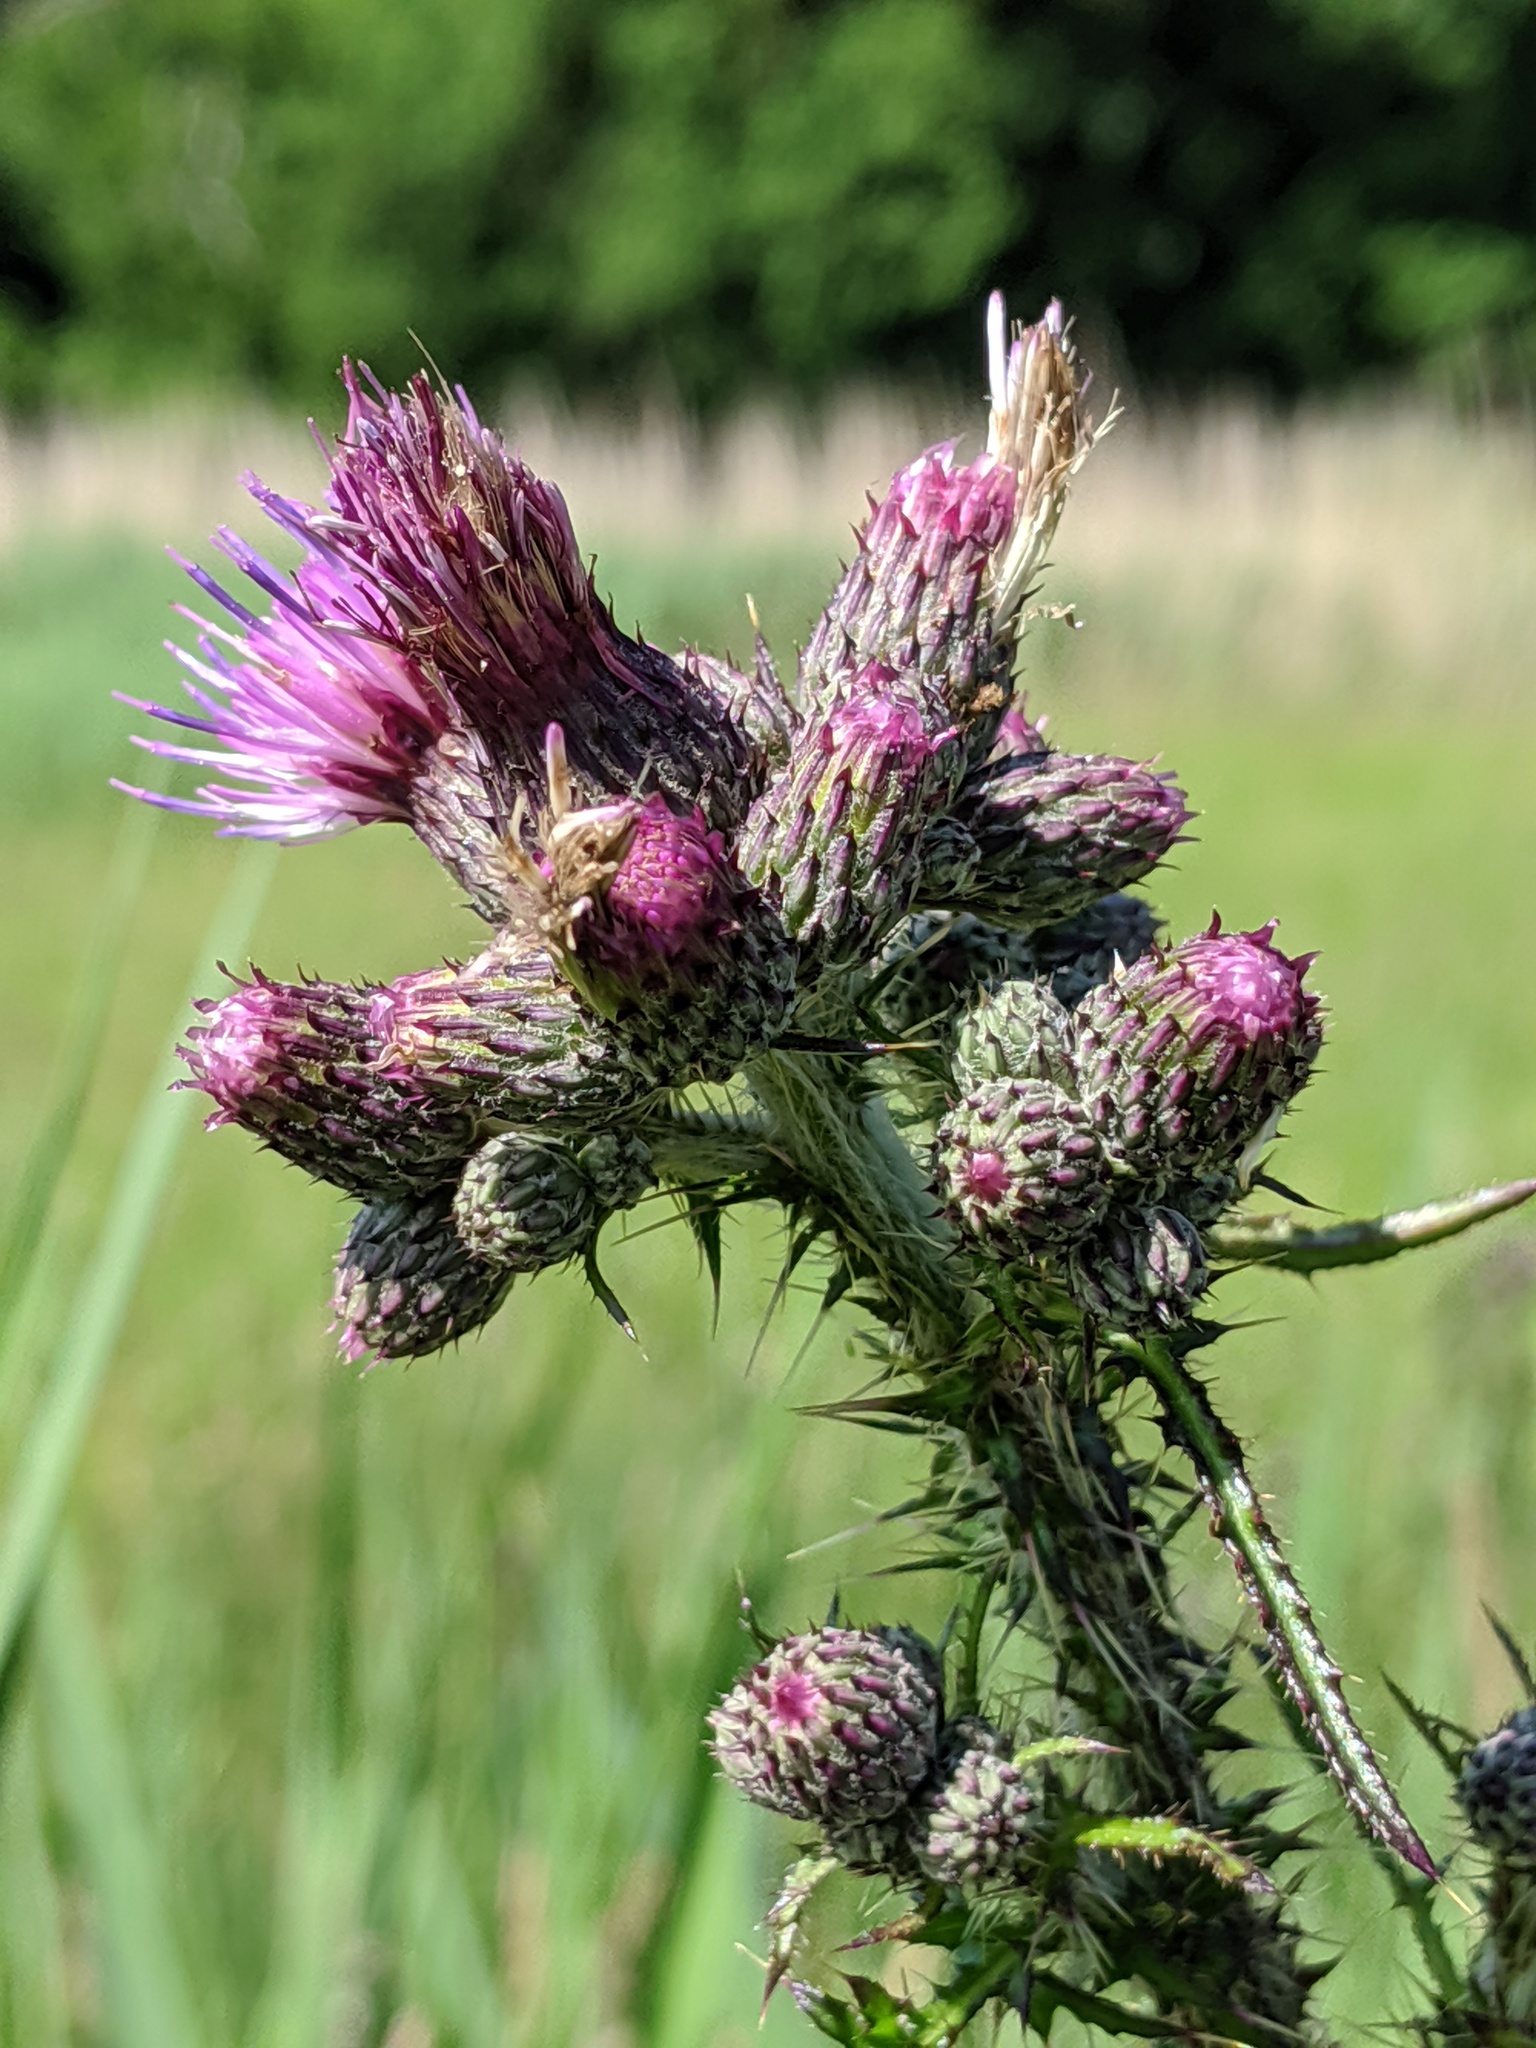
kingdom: Plantae
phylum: Tracheophyta
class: Magnoliopsida
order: Asterales
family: Asteraceae
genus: Cirsium
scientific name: Cirsium palustre
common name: Marsh thistle
